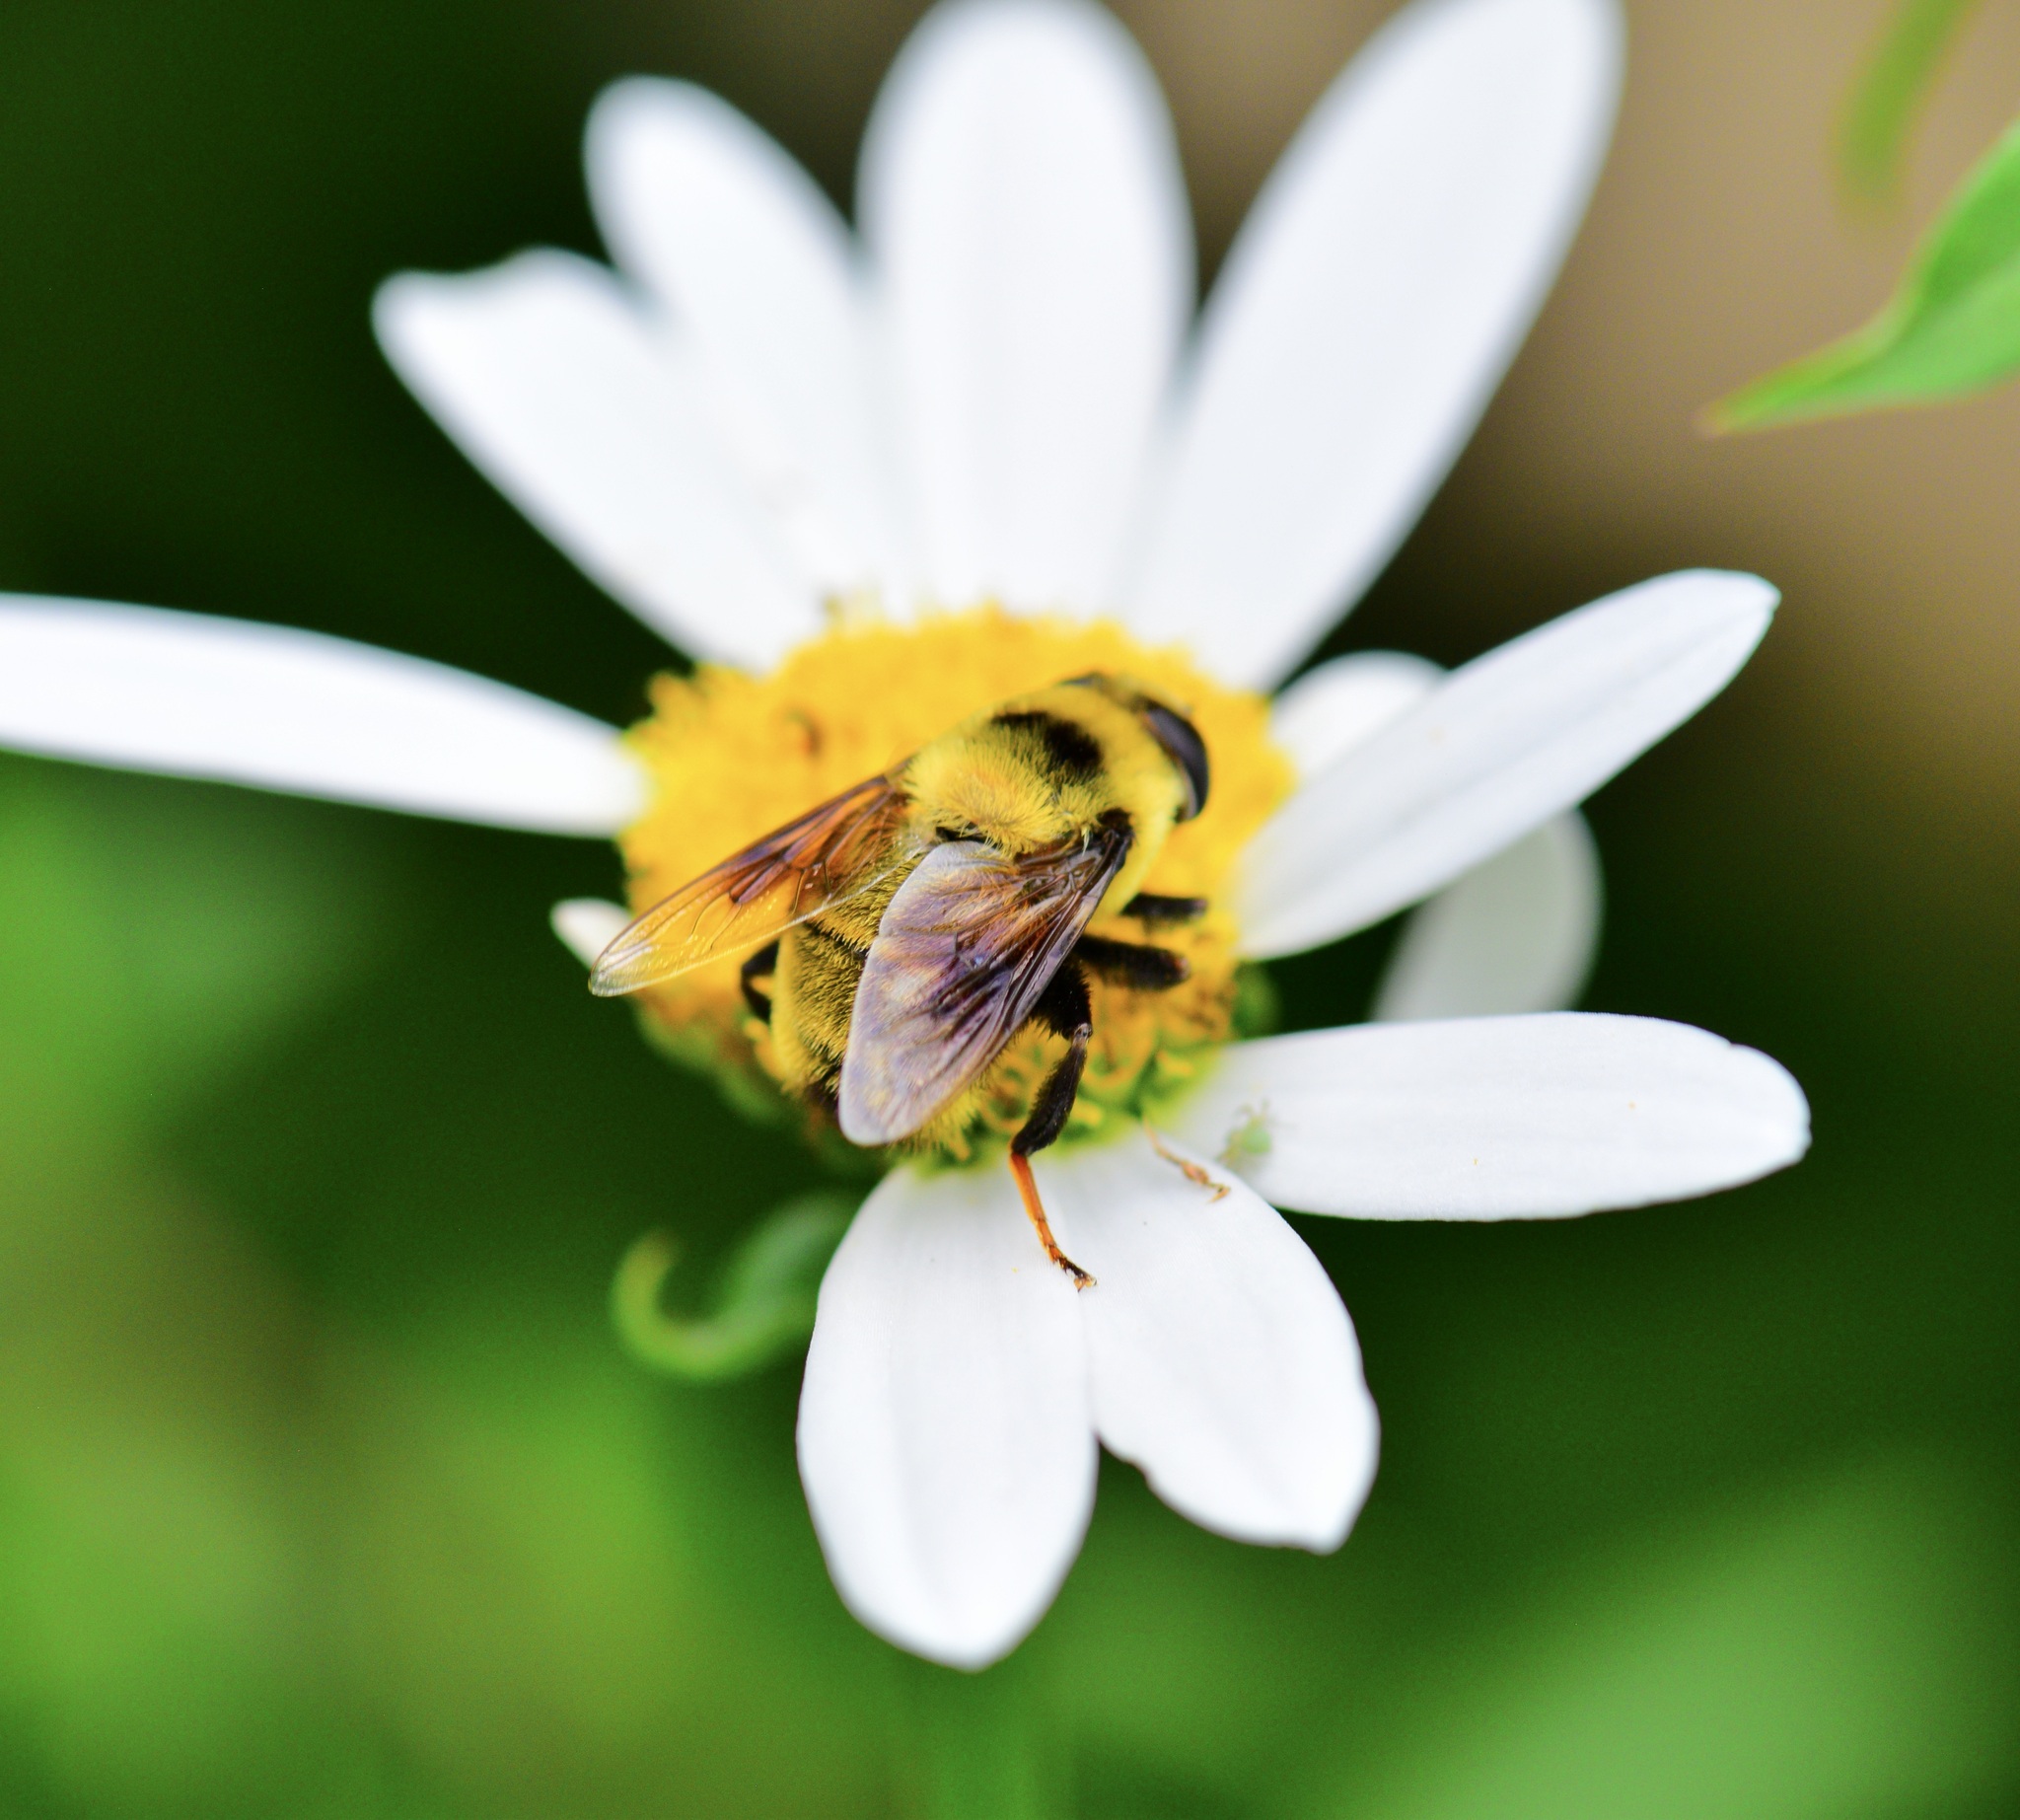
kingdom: Animalia
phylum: Arthropoda
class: Insecta
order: Diptera
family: Syrphidae
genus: Eristalis
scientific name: Eristalis flavipes
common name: Orange-legged drone fly
